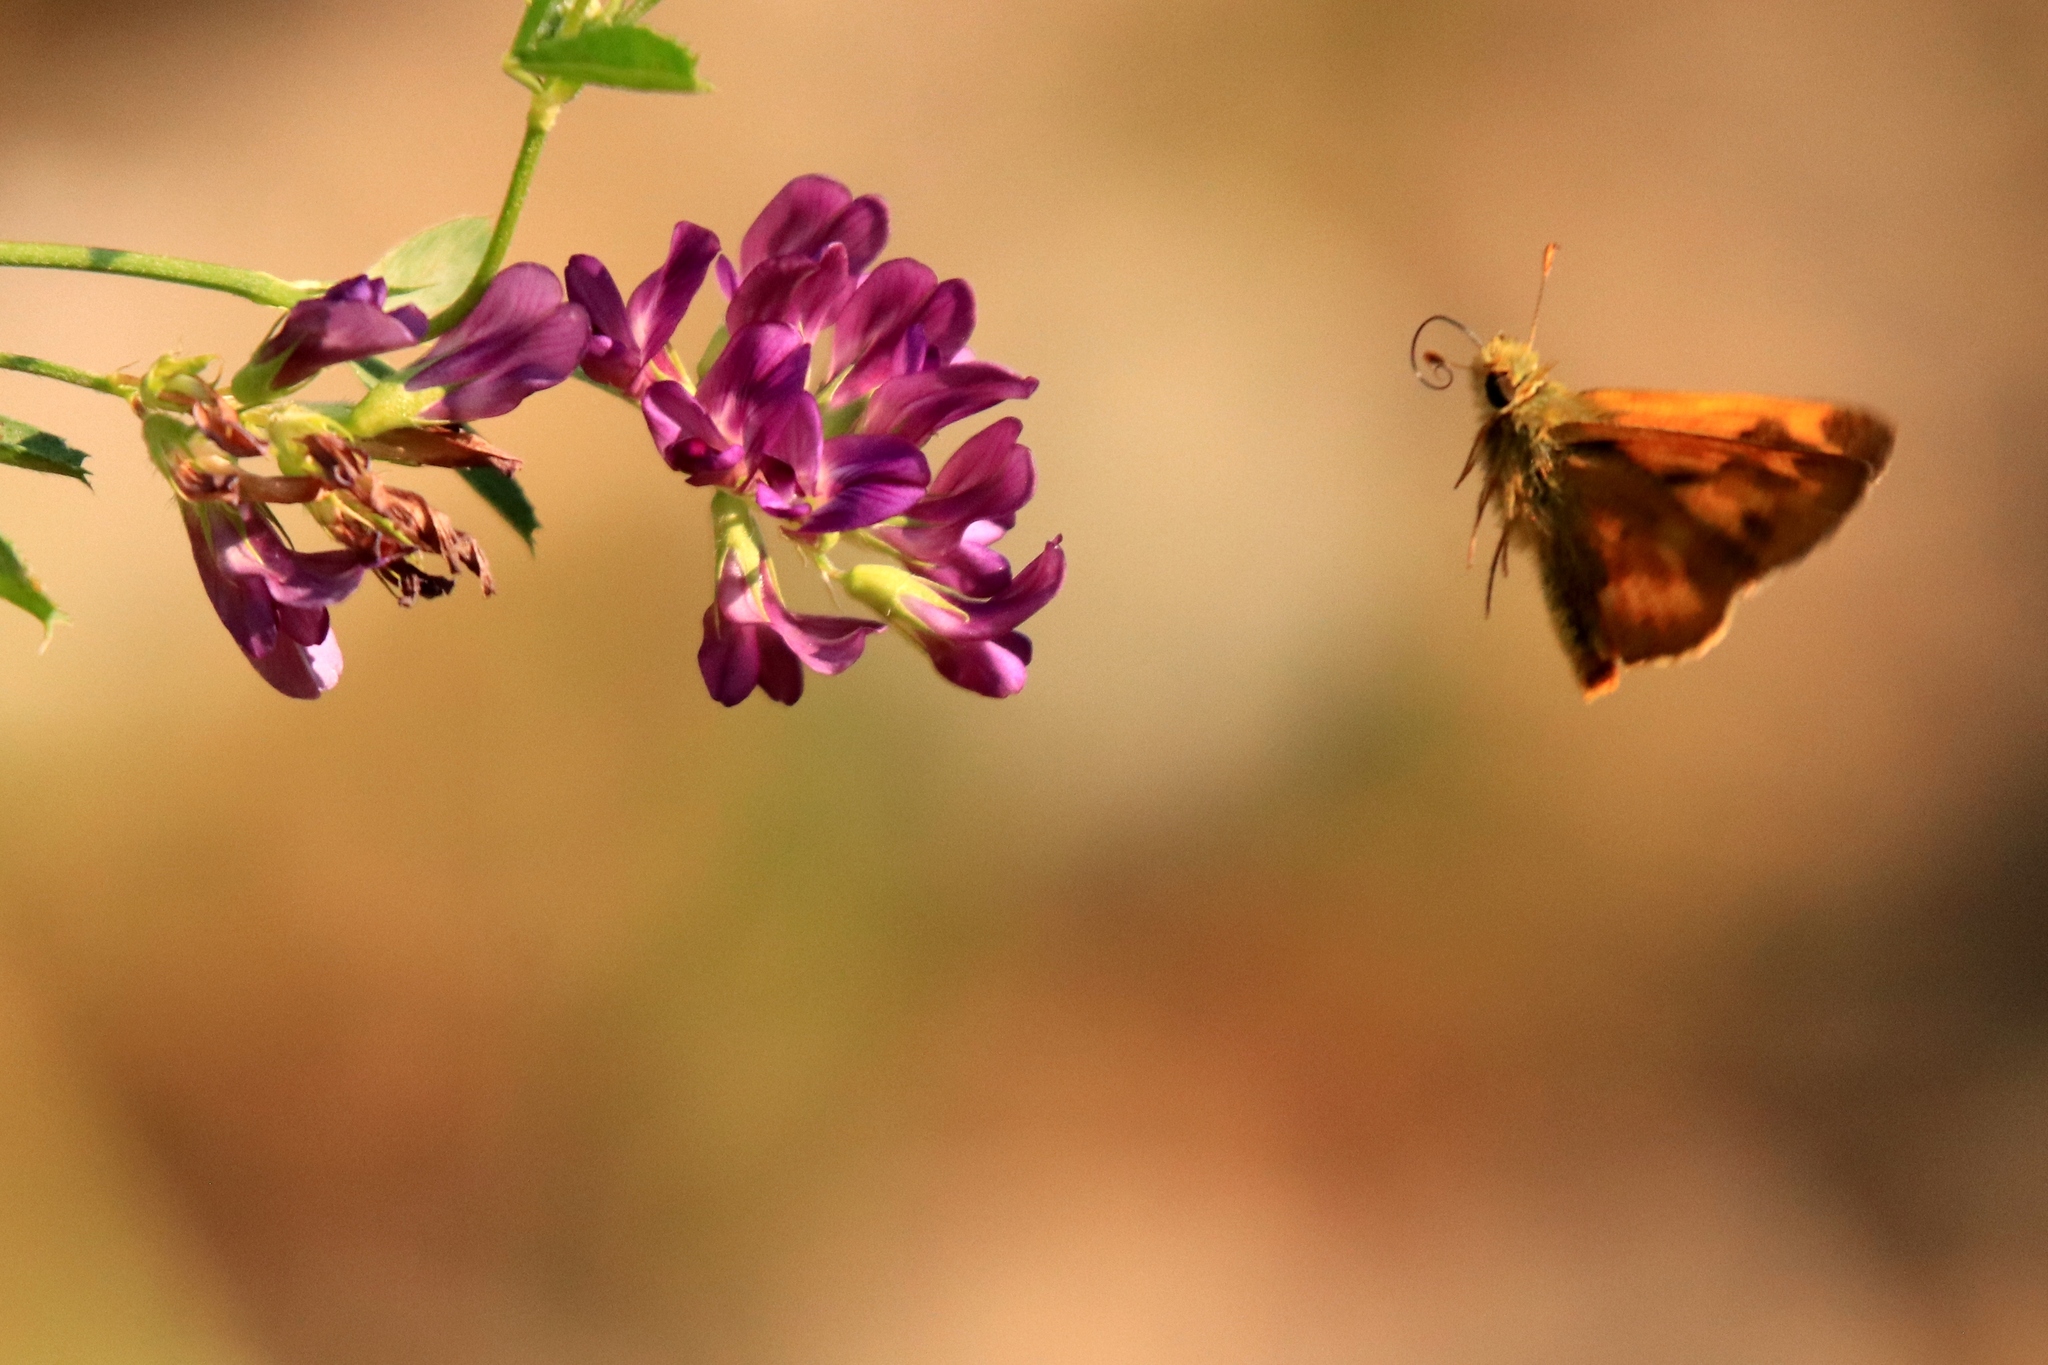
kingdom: Animalia
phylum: Arthropoda
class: Insecta
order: Lepidoptera
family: Hesperiidae
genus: Ochlodes
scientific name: Ochlodes sylvanoides
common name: Woodland skipper
